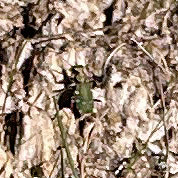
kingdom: Animalia
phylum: Arthropoda
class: Insecta
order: Coleoptera
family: Carabidae
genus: Cicindela
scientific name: Cicindela campestris
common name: Common tiger beetle
